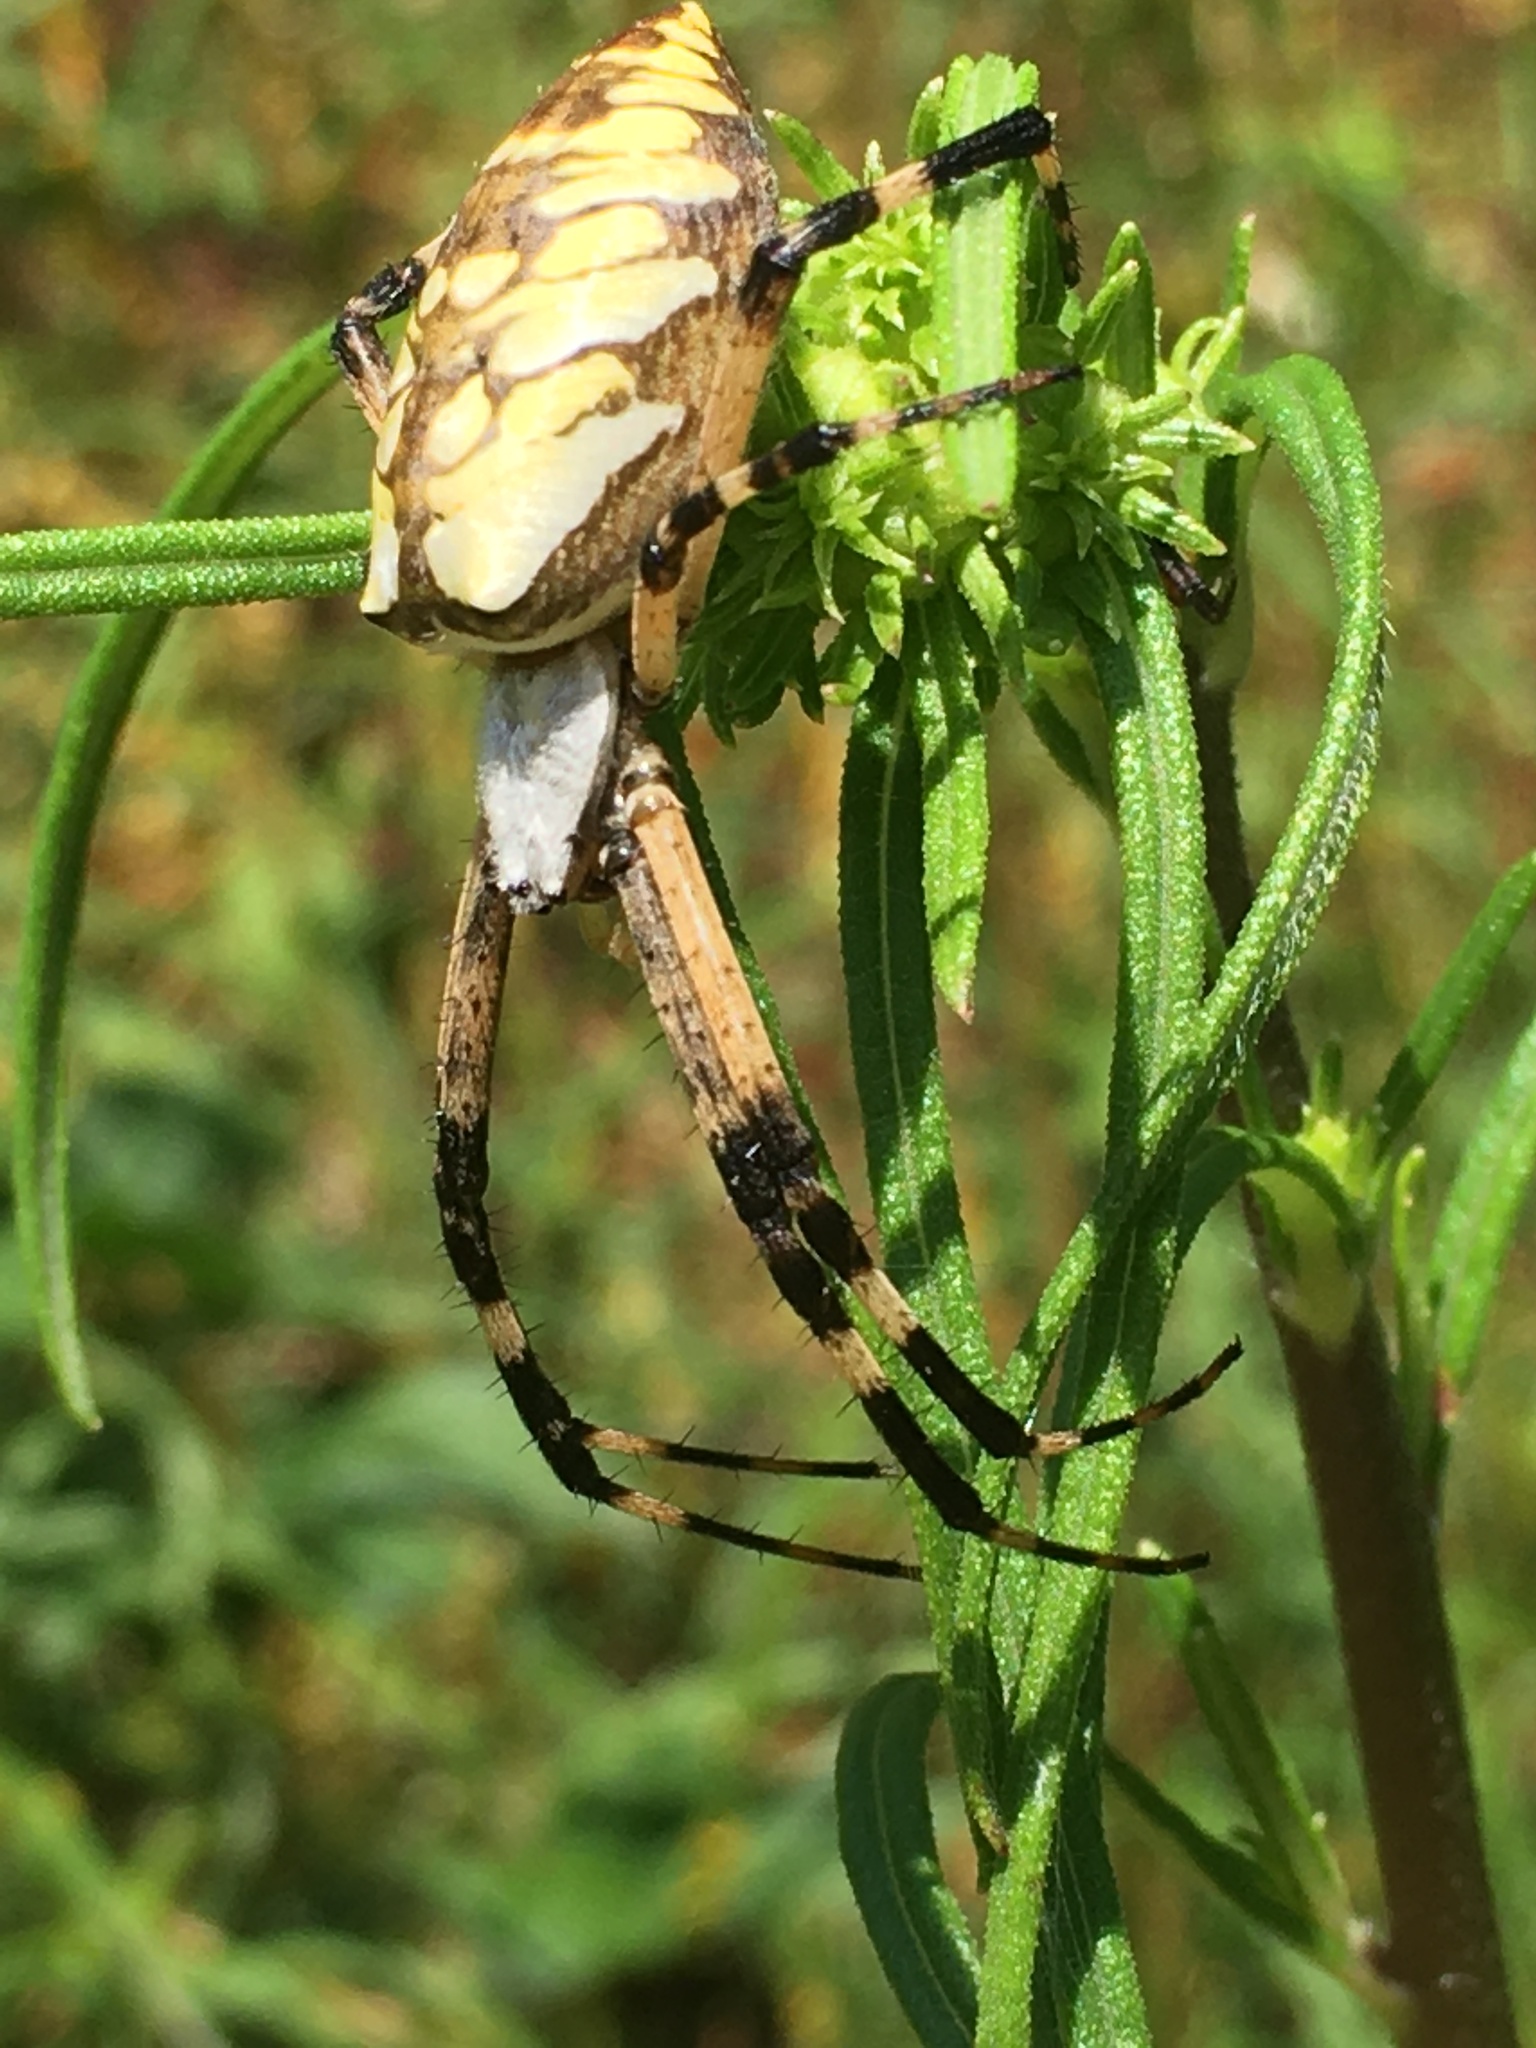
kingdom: Animalia
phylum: Arthropoda
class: Arachnida
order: Araneae
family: Araneidae
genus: Argiope
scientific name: Argiope aurantia
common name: Orb weavers
